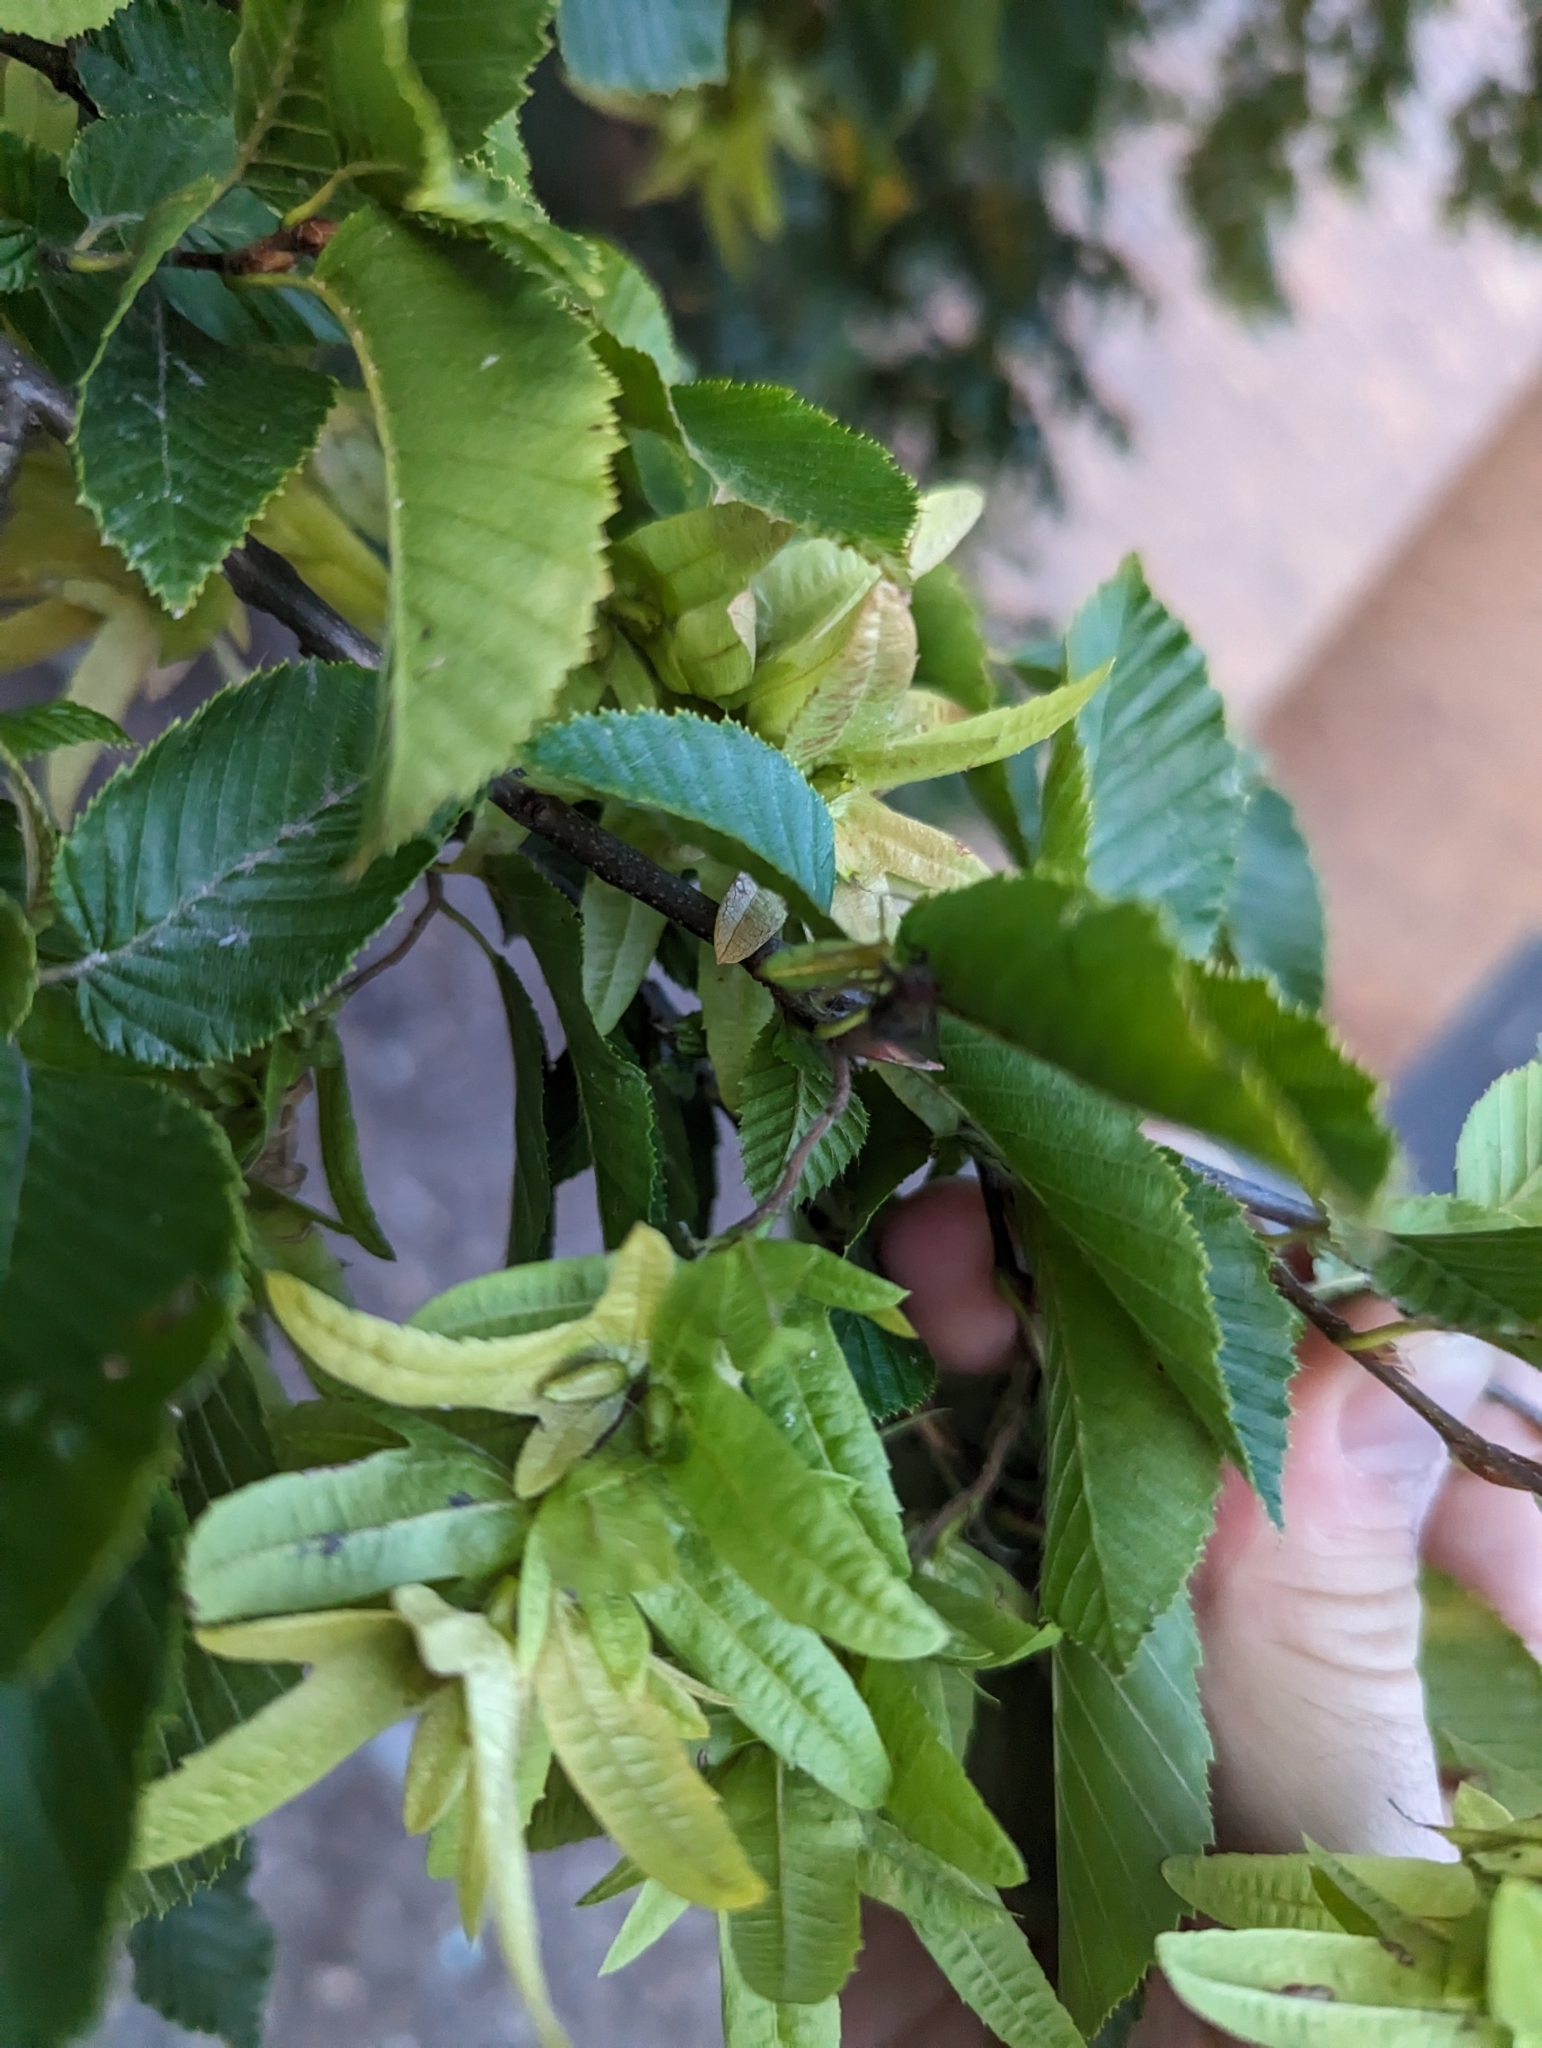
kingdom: Animalia
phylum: Arthropoda
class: Insecta
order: Hemiptera
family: Reduviidae
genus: Zelus
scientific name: Zelus luridus
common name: Pale green assassin bug
